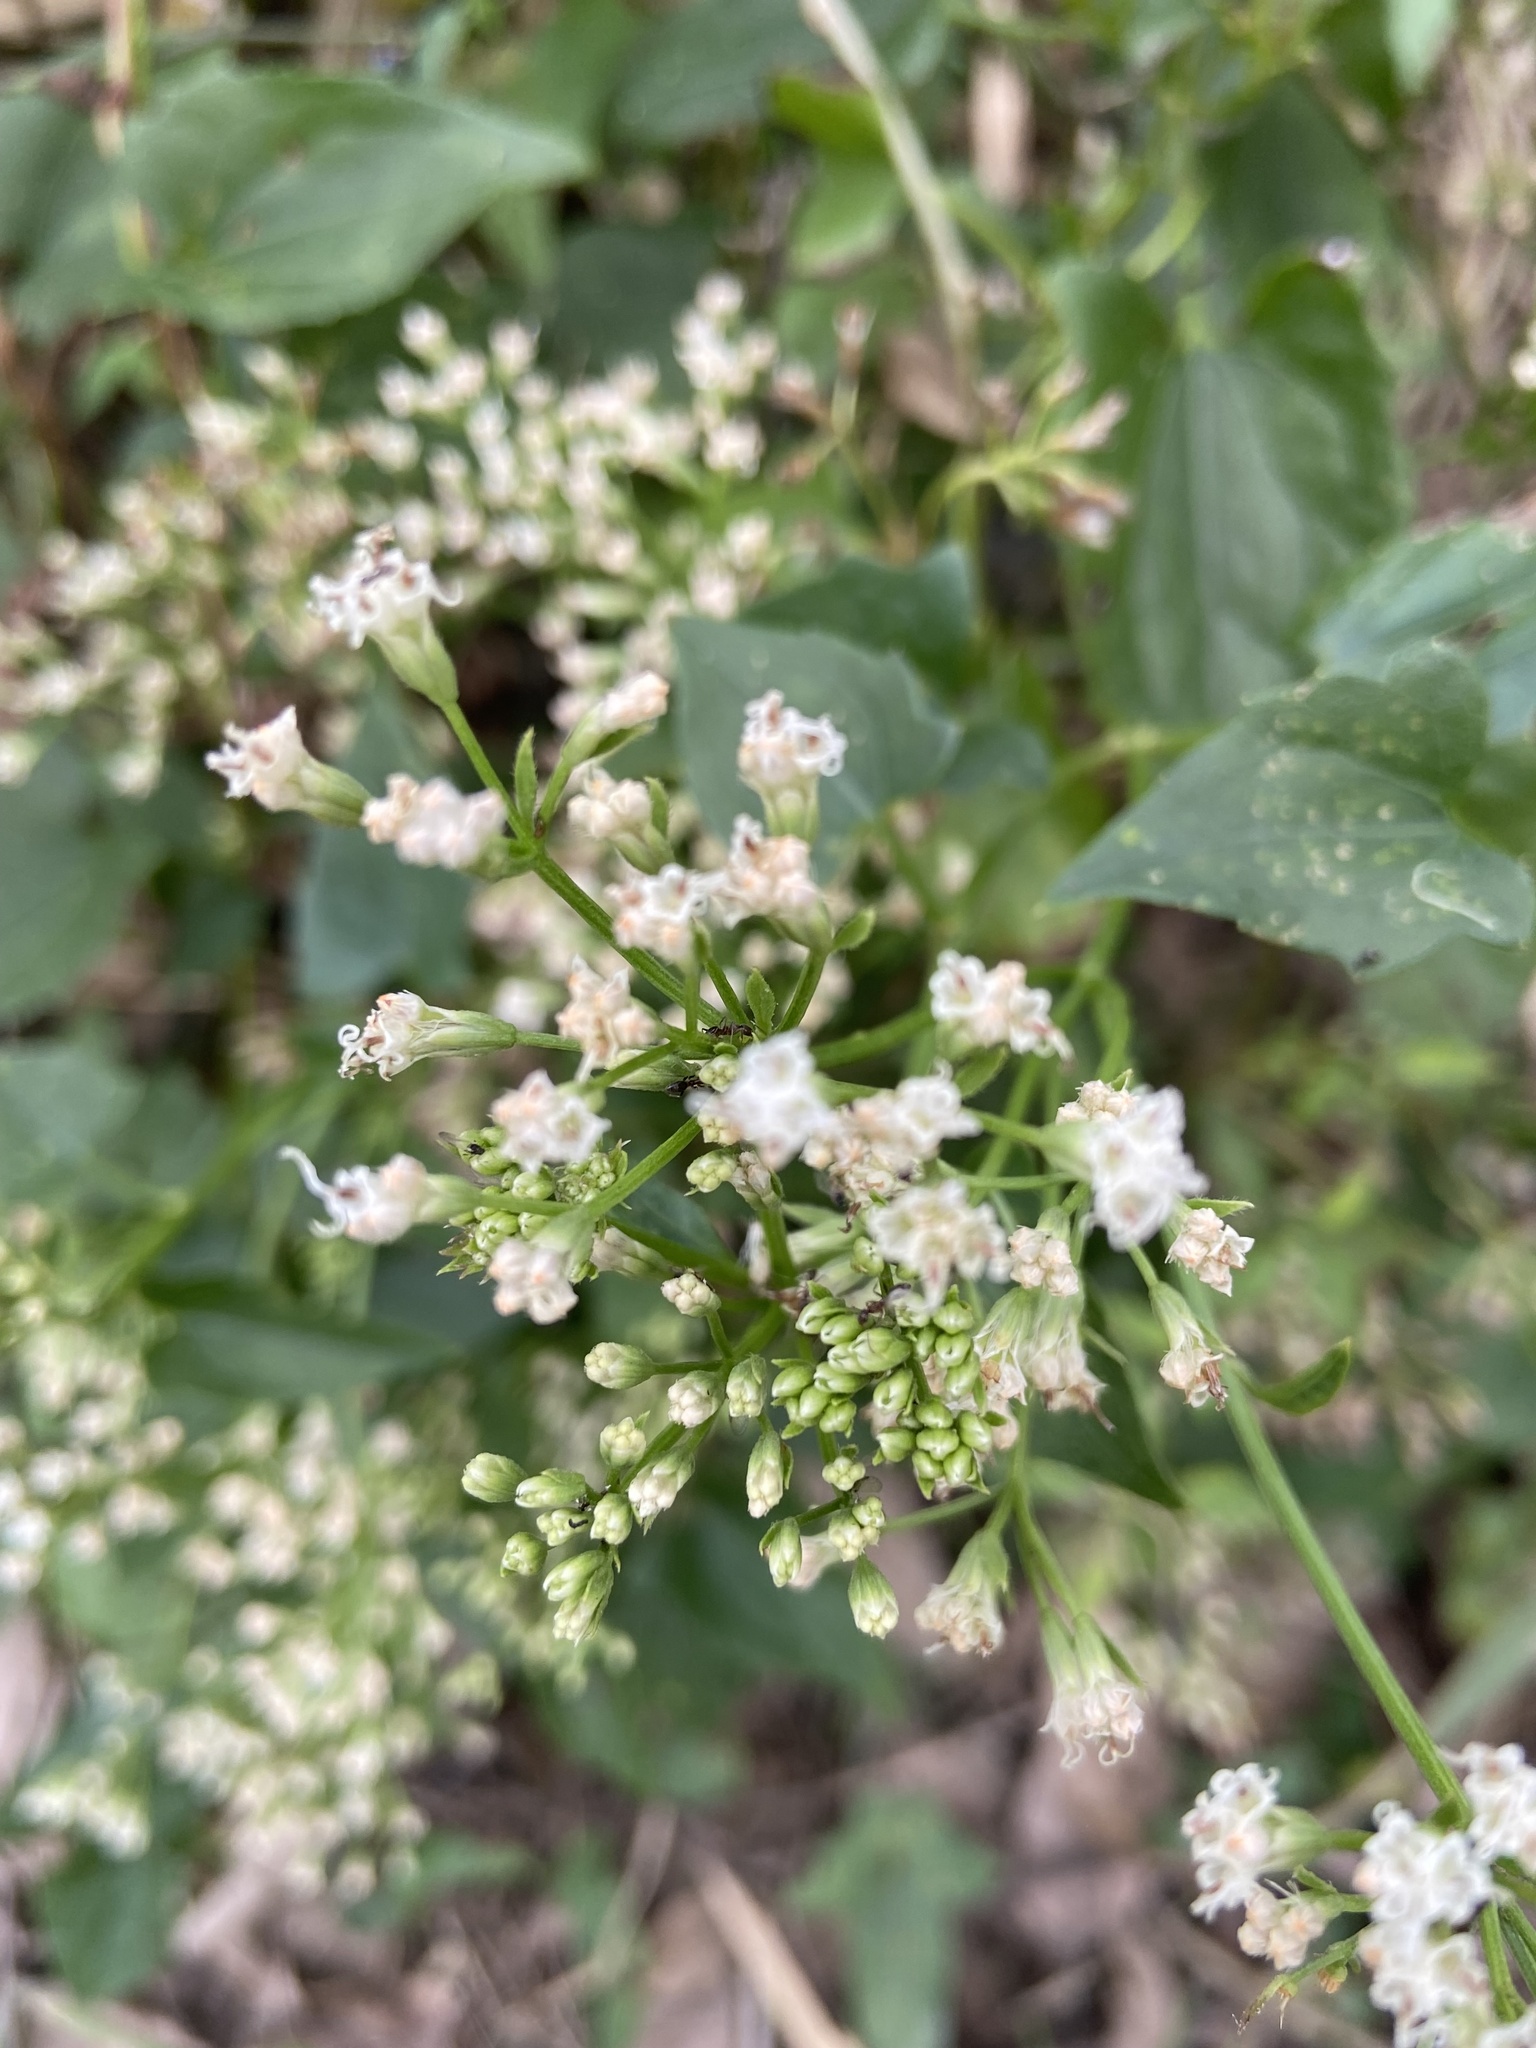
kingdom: Plantae
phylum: Tracheophyta
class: Magnoliopsida
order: Asterales
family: Asteraceae
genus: Mikania
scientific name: Mikania micrantha
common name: Mile-a-minute
